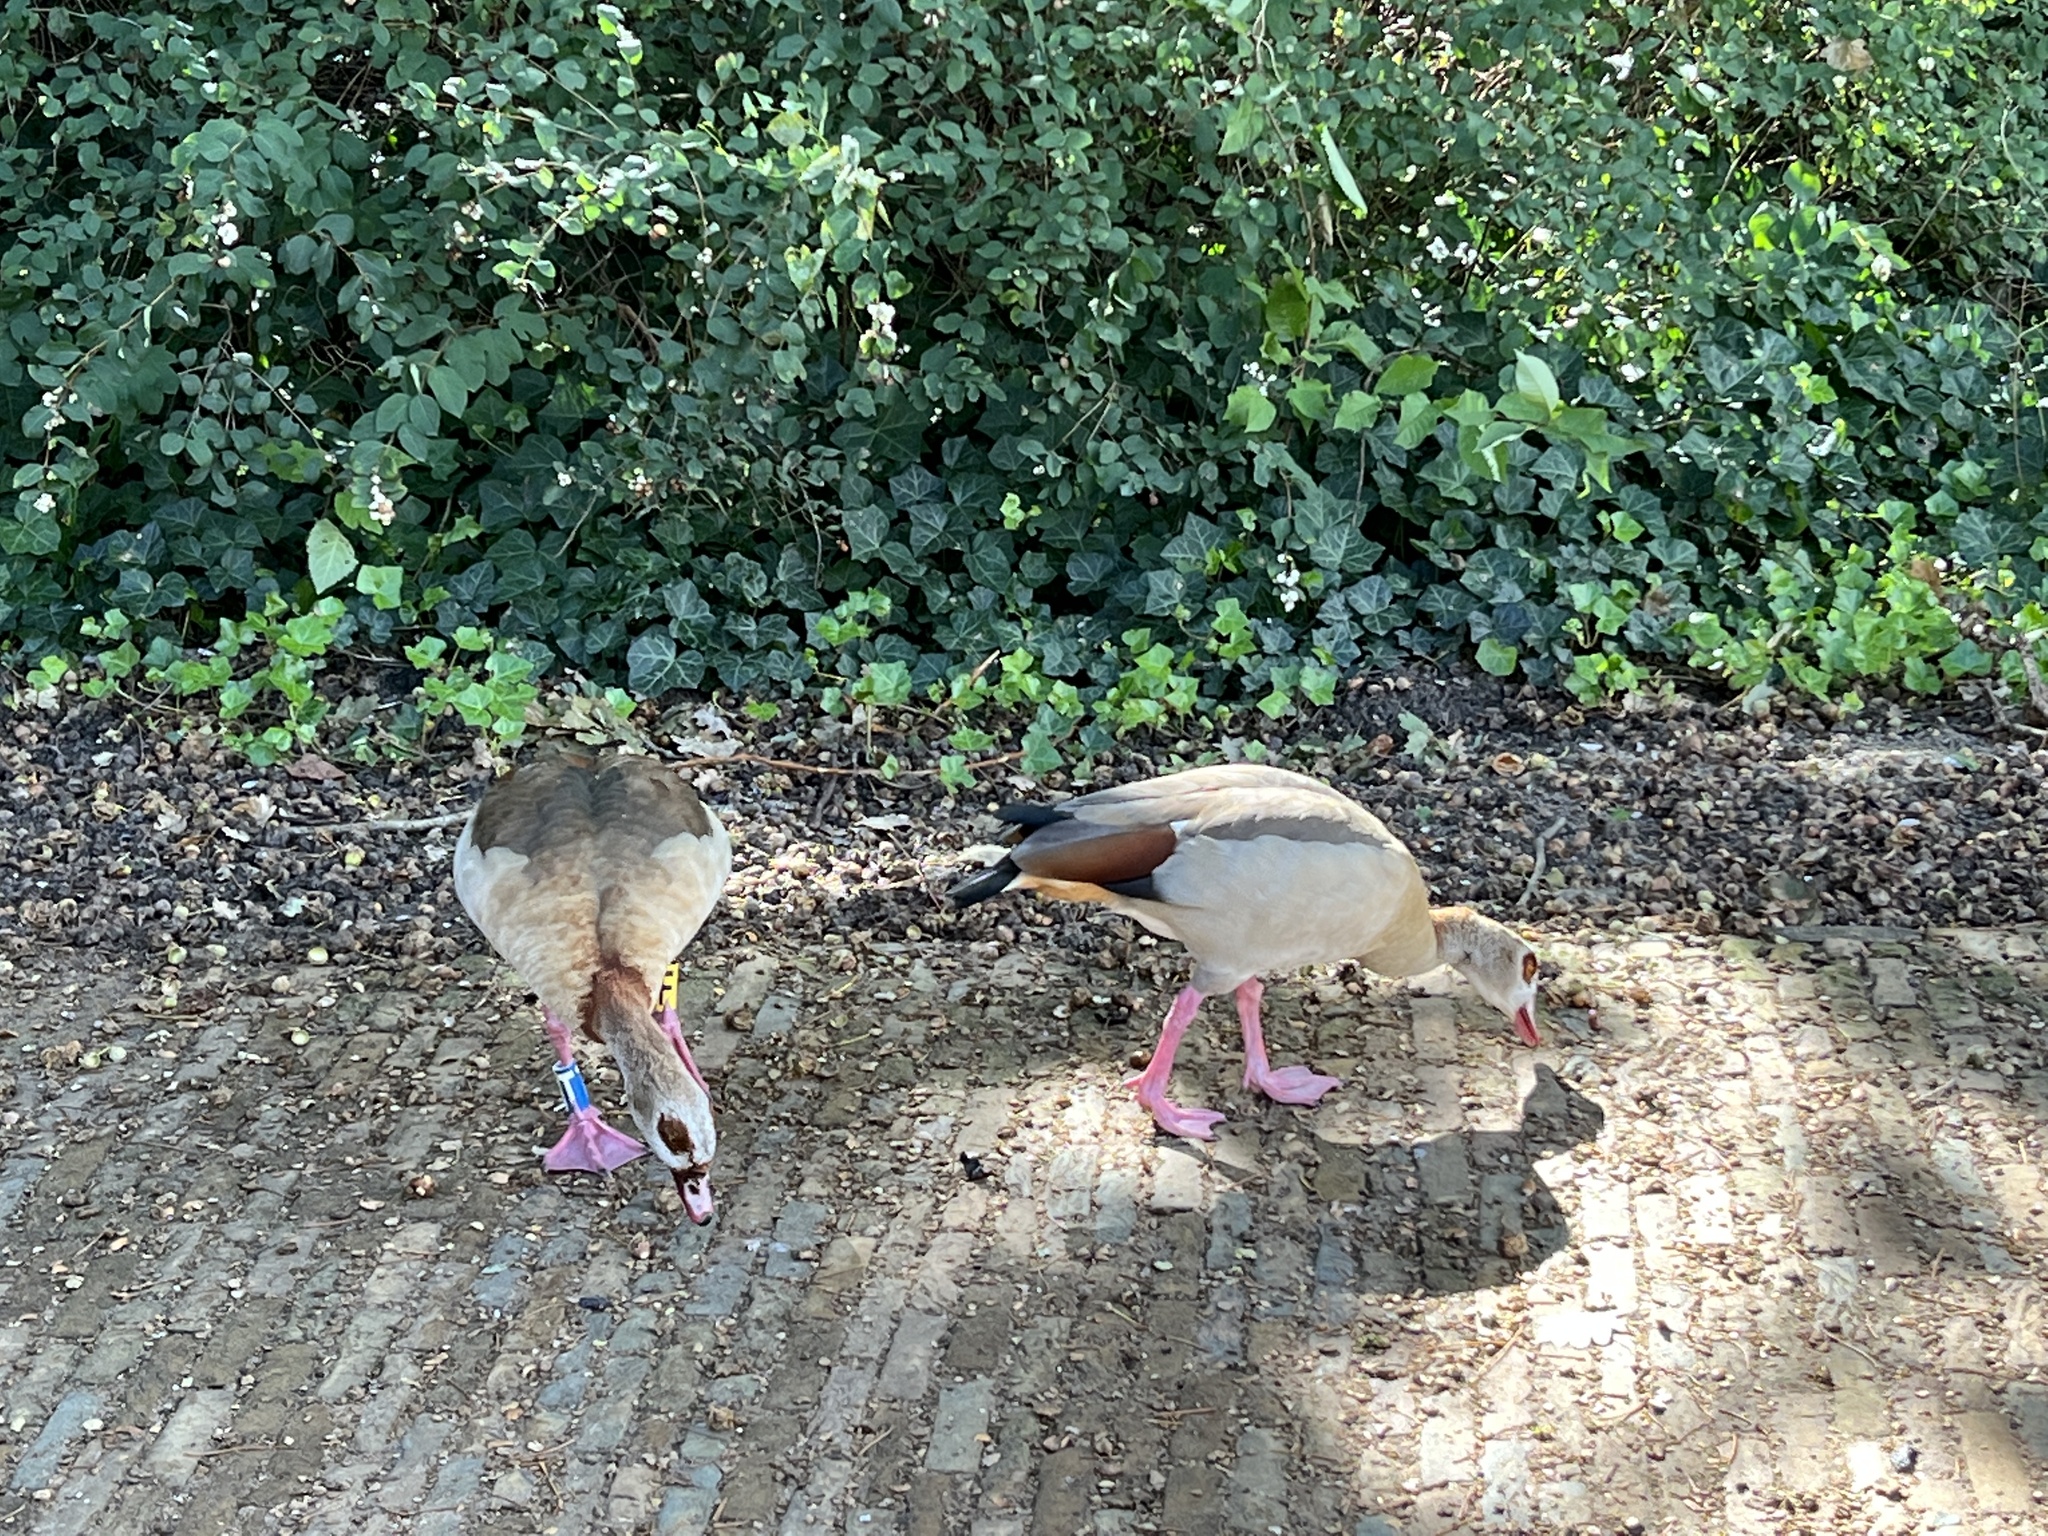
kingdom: Animalia
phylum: Chordata
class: Aves
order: Anseriformes
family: Anatidae
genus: Alopochen
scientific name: Alopochen aegyptiaca
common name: Egyptian goose
